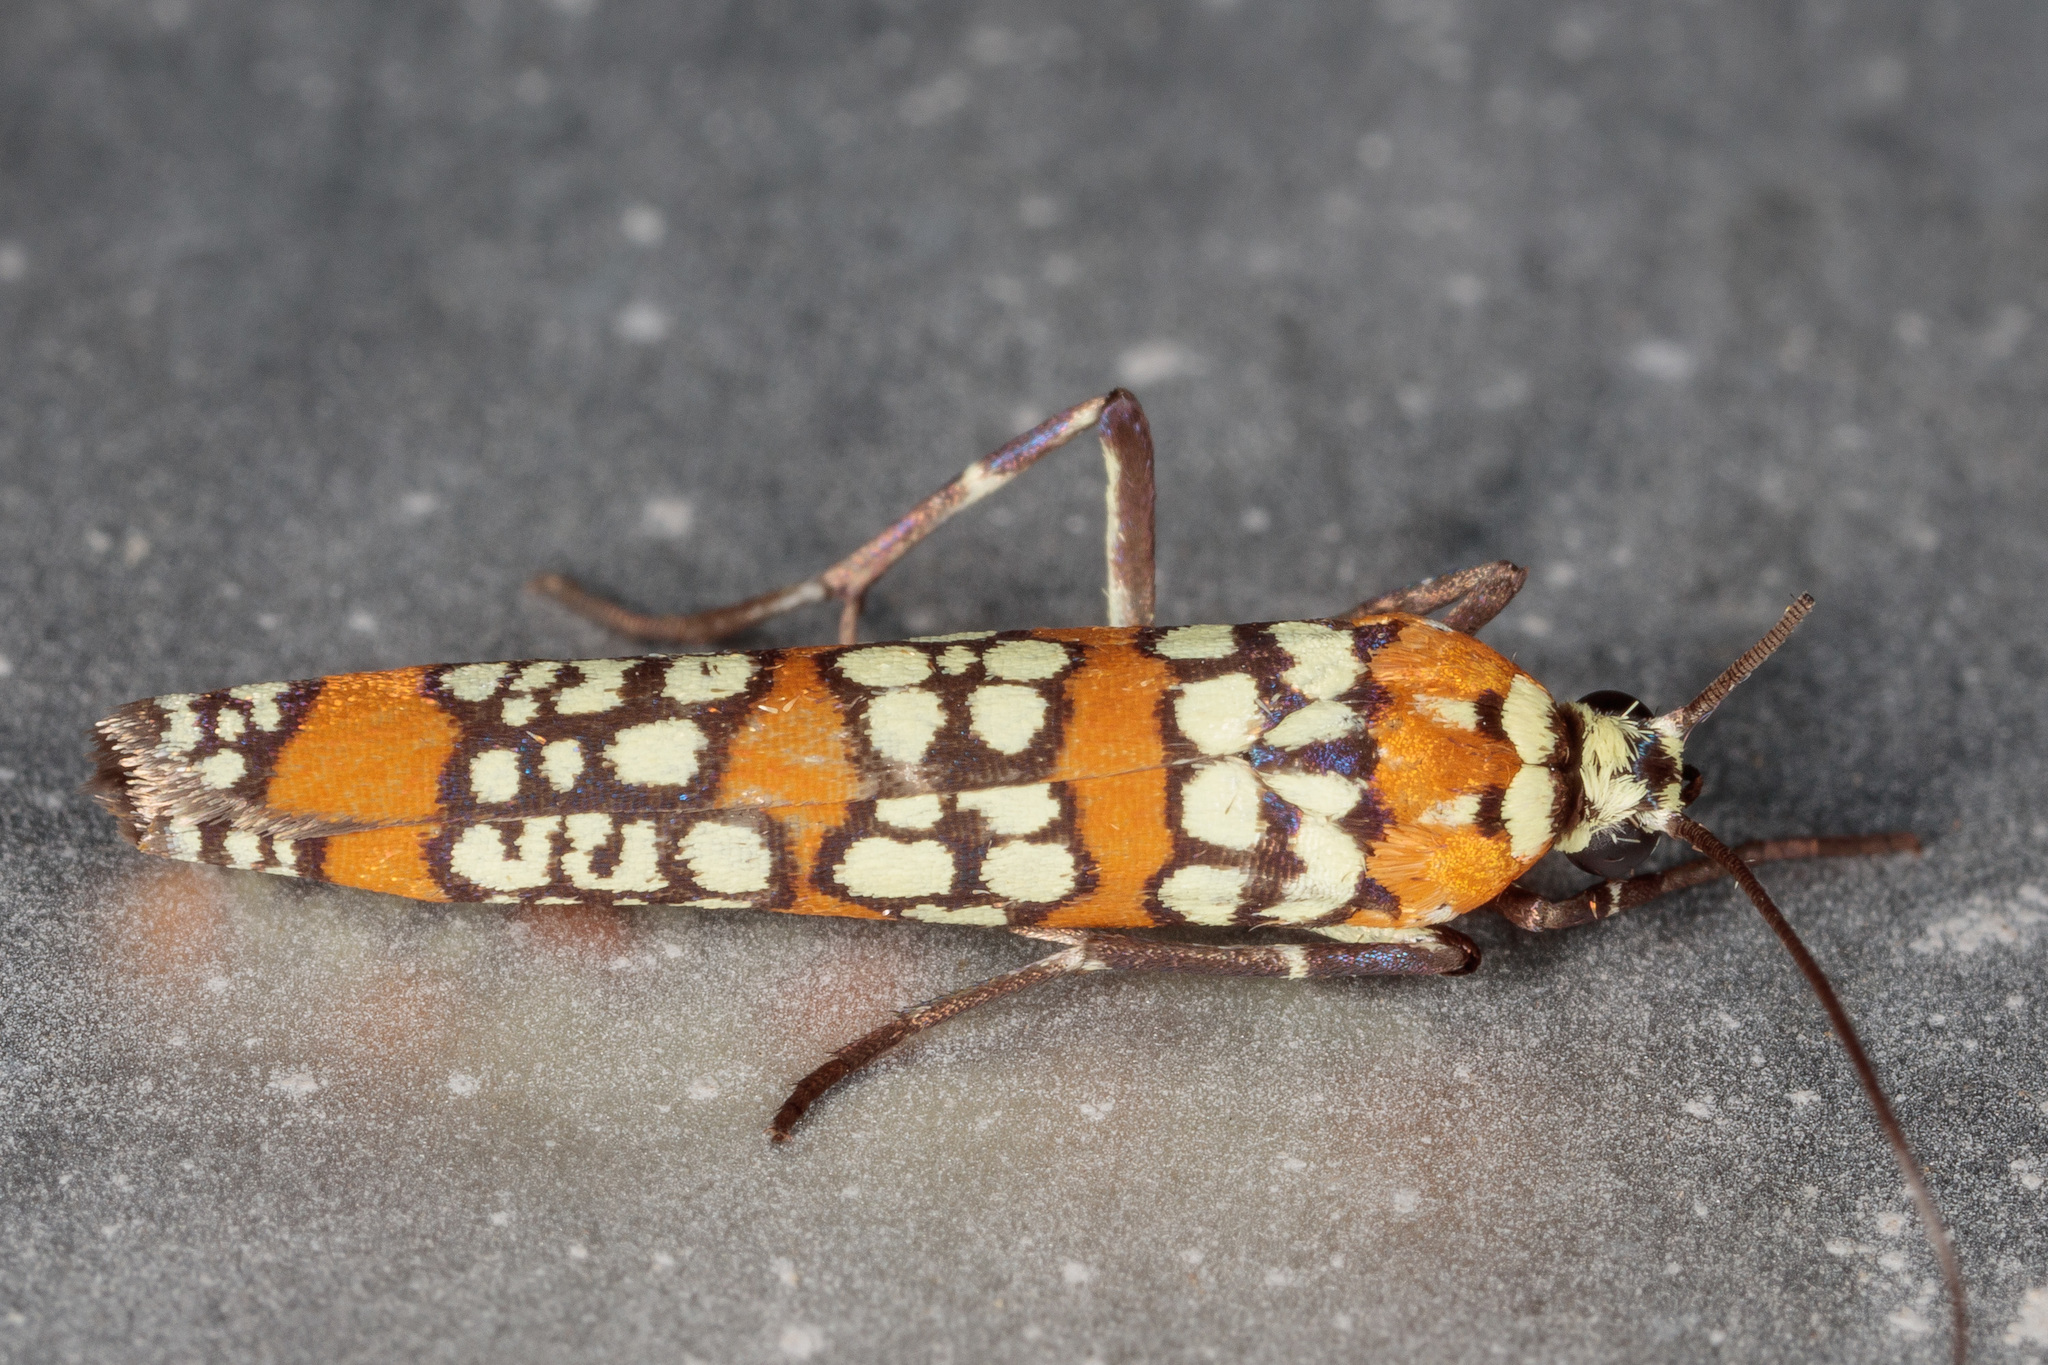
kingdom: Animalia
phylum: Arthropoda
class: Insecta
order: Lepidoptera
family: Attevidae
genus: Atteva
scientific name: Atteva punctella
